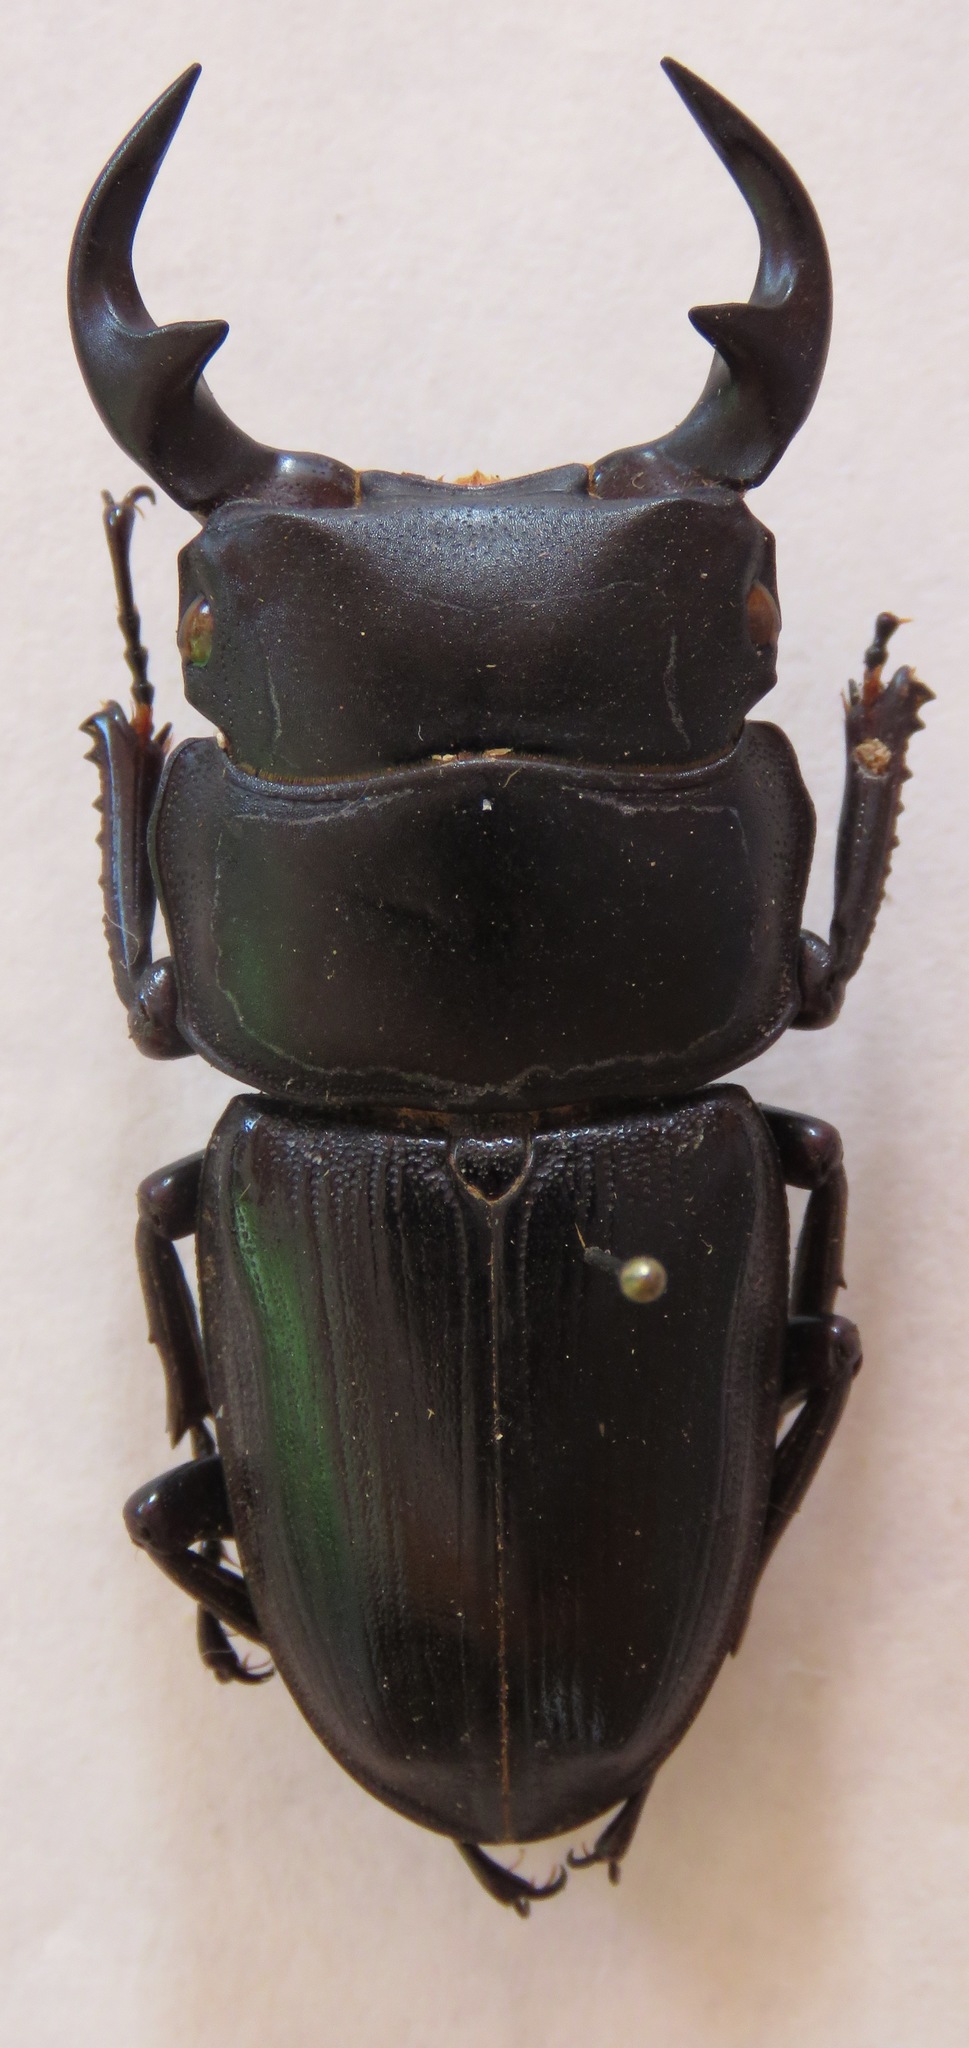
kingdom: Animalia
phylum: Arthropoda
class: Insecta
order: Coleoptera
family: Lucanidae
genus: Dorcus
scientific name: Dorcus curvidens
